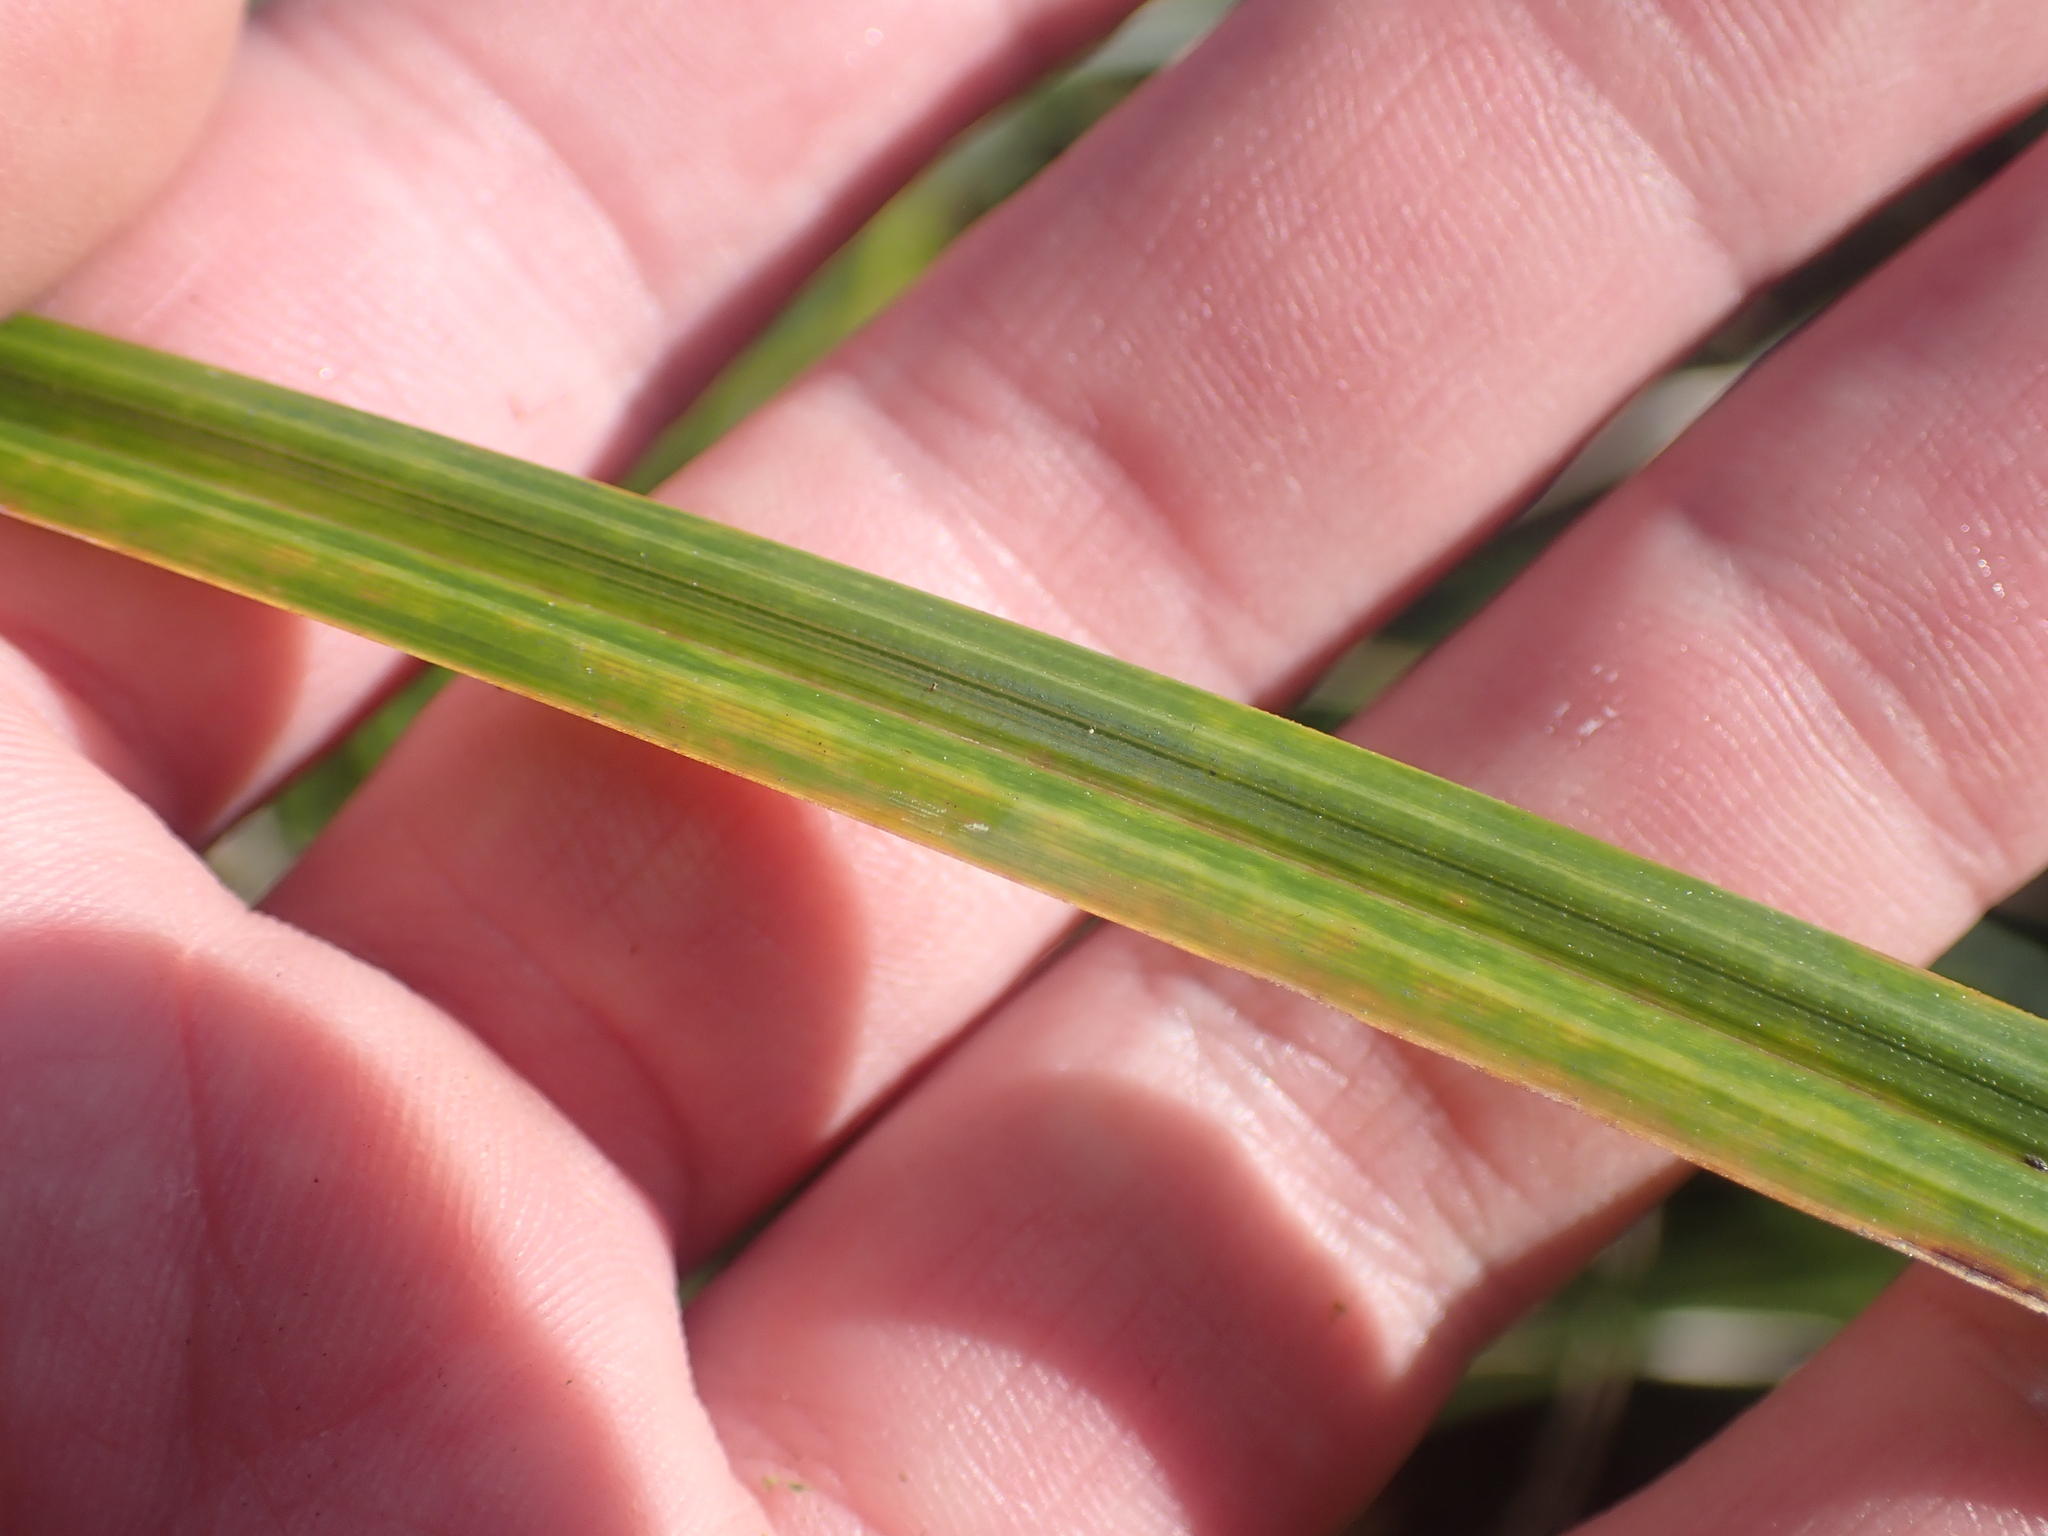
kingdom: Plantae
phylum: Tracheophyta
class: Liliopsida
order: Poales
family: Cyperaceae
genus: Carex
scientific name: Carex lessoniana
